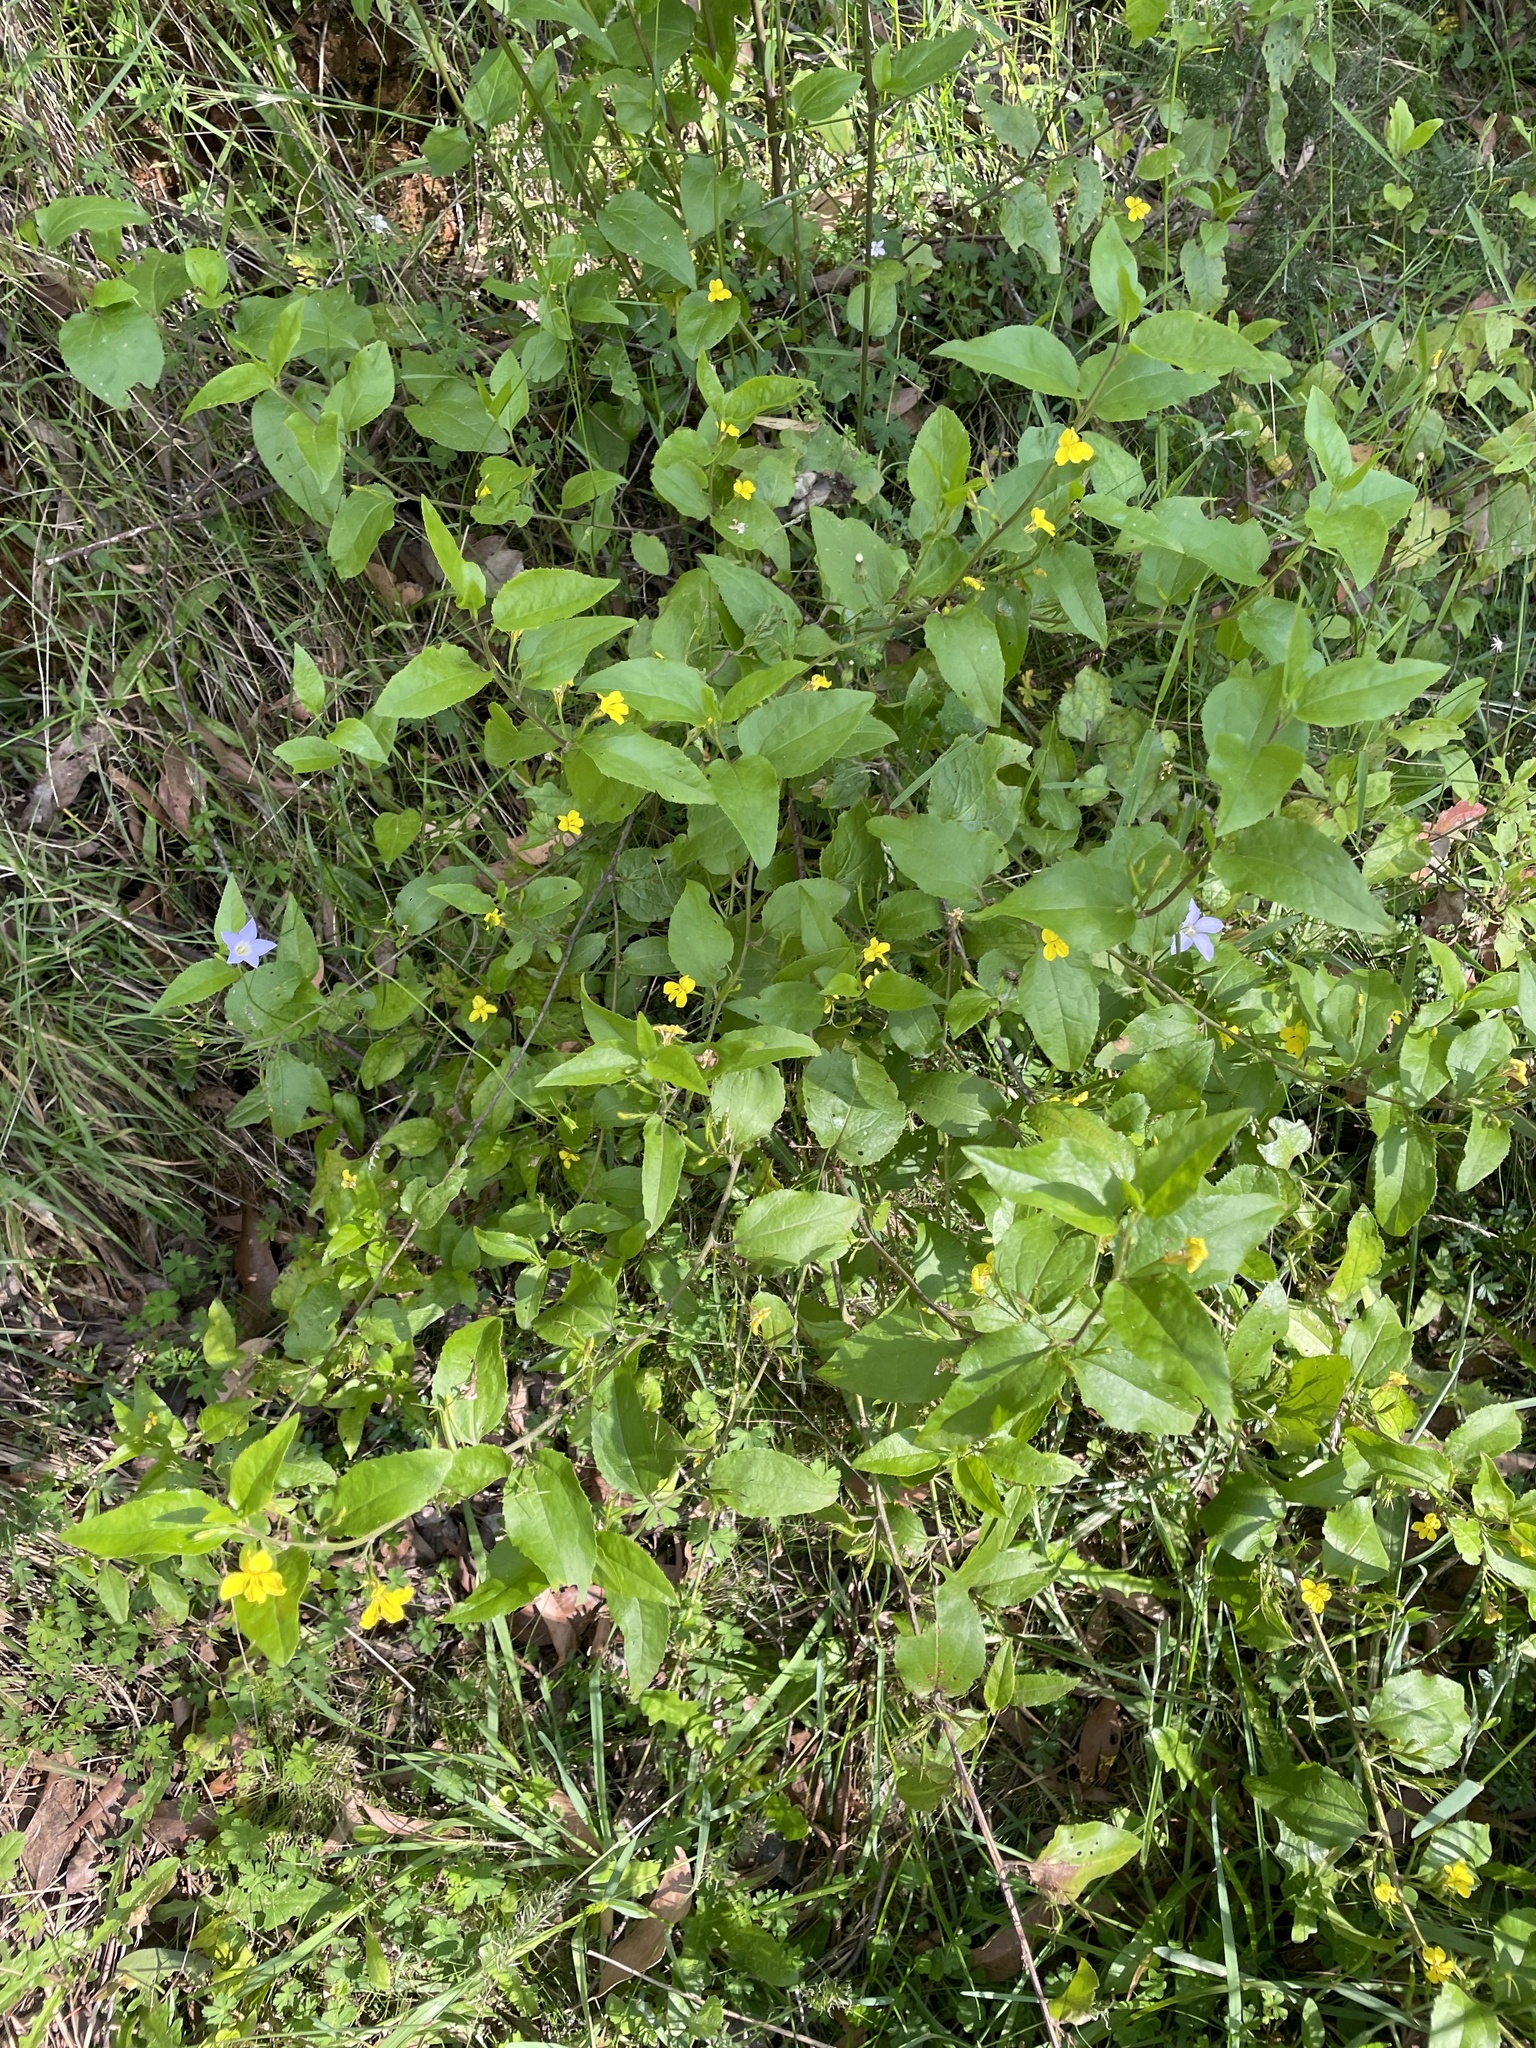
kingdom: Plantae
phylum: Tracheophyta
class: Magnoliopsida
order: Asterales
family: Goodeniaceae
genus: Goodenia
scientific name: Goodenia ovata
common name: Hop goodenia
